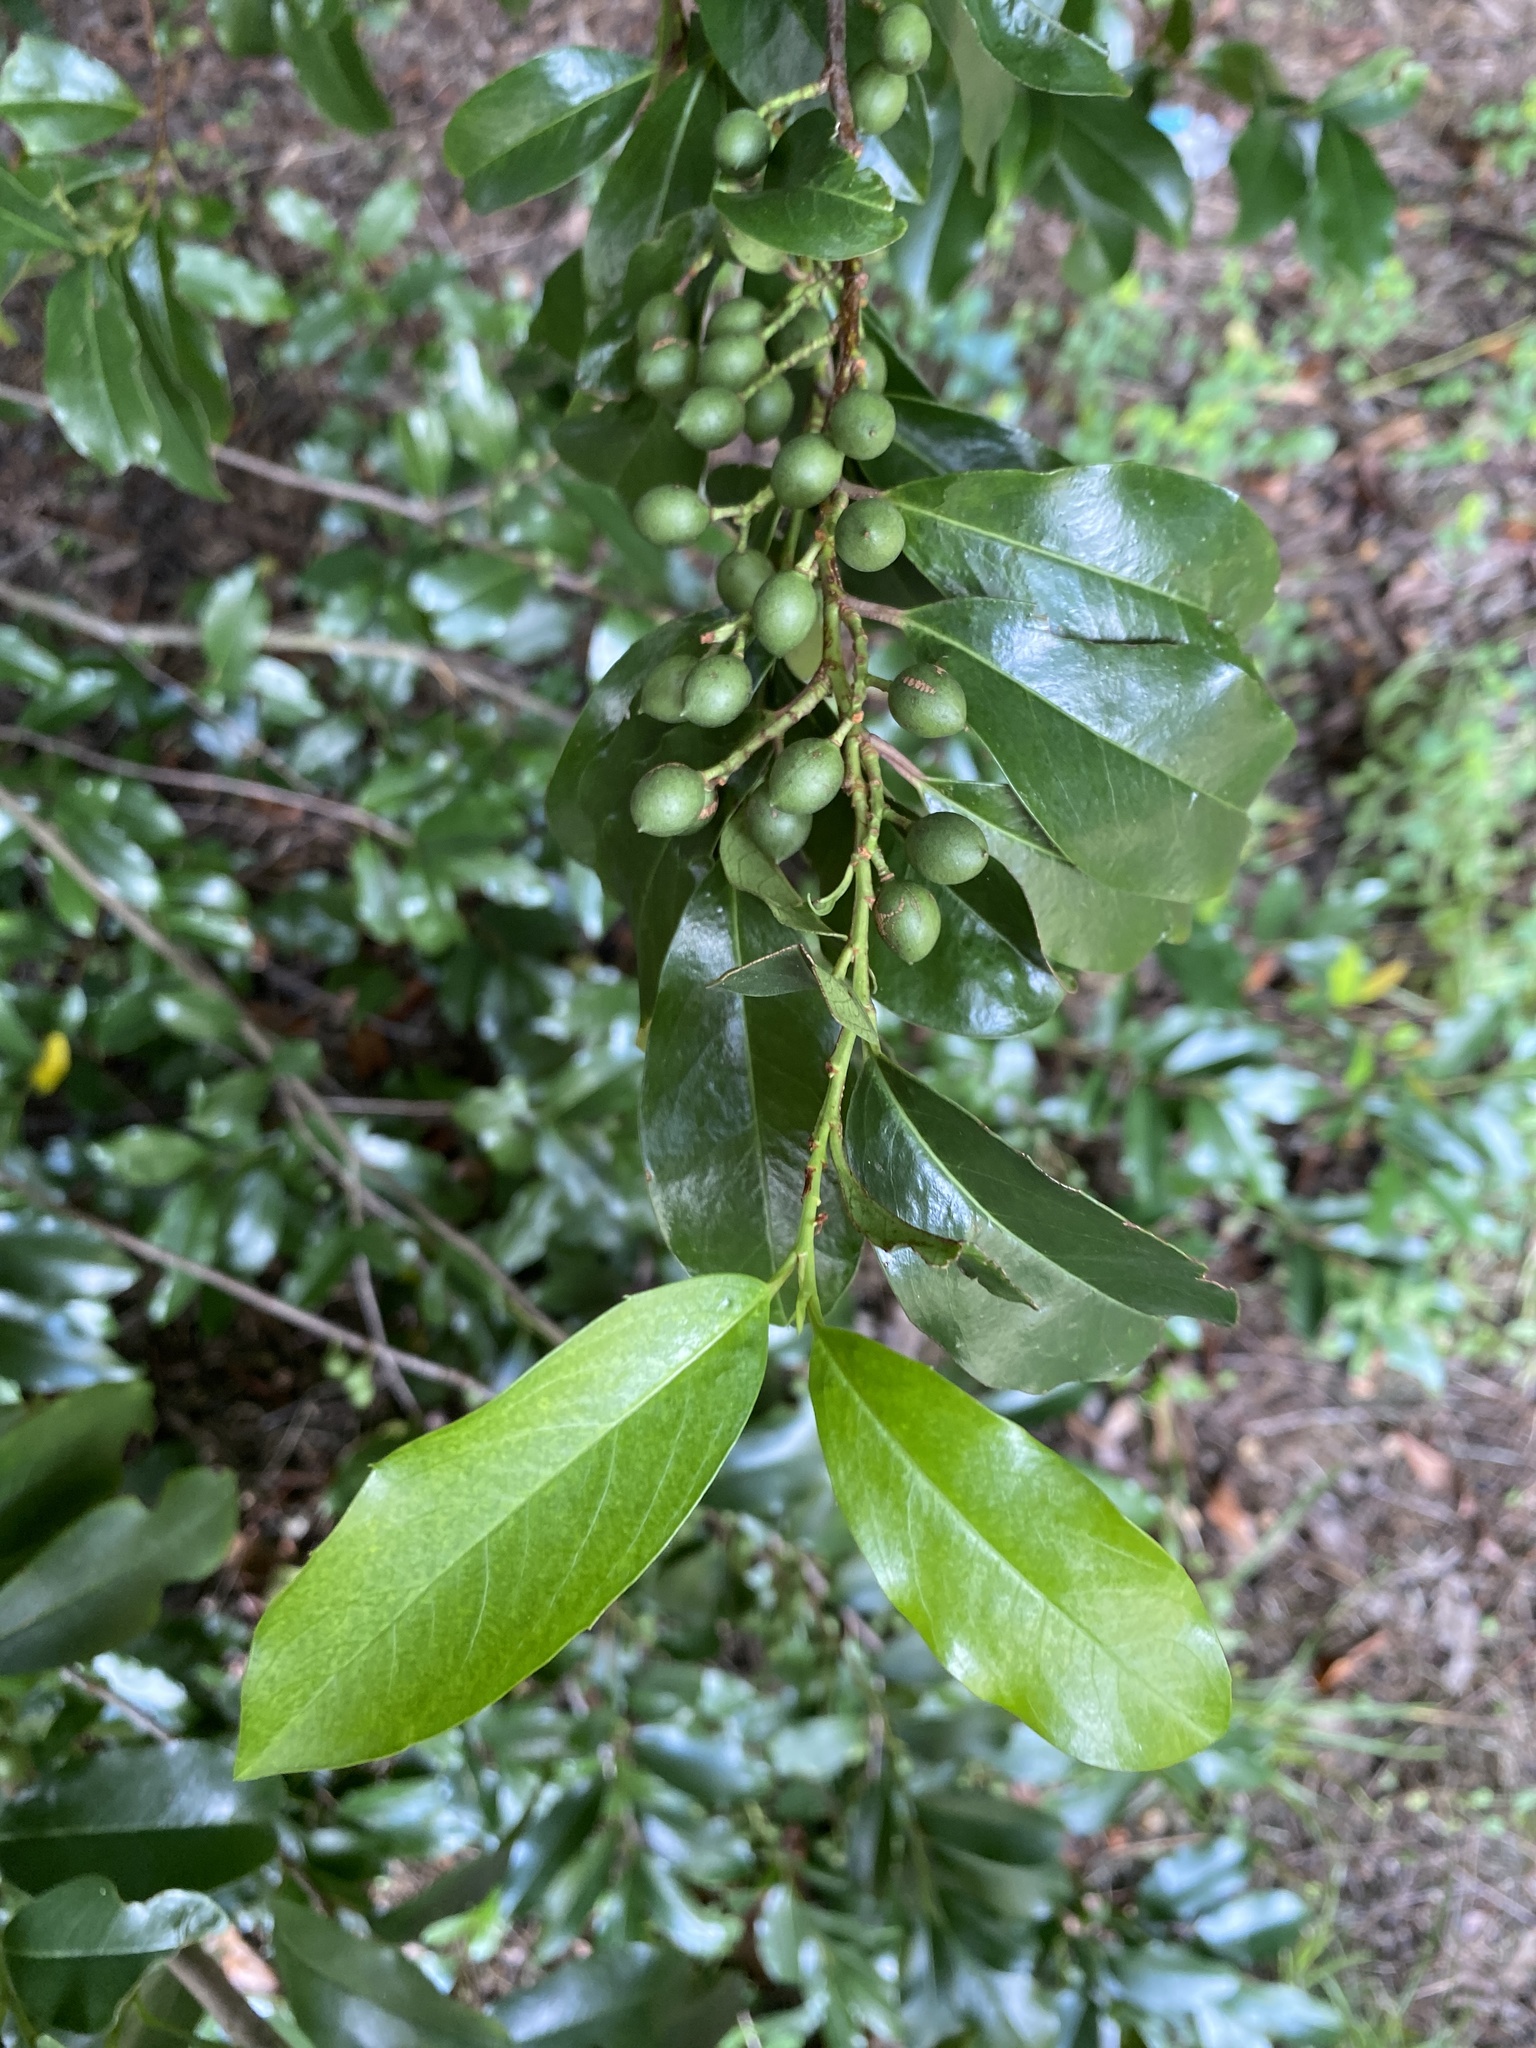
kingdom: Plantae
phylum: Tracheophyta
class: Magnoliopsida
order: Rosales
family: Rosaceae
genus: Prunus
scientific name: Prunus caroliniana
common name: Carolina laurel cherry
